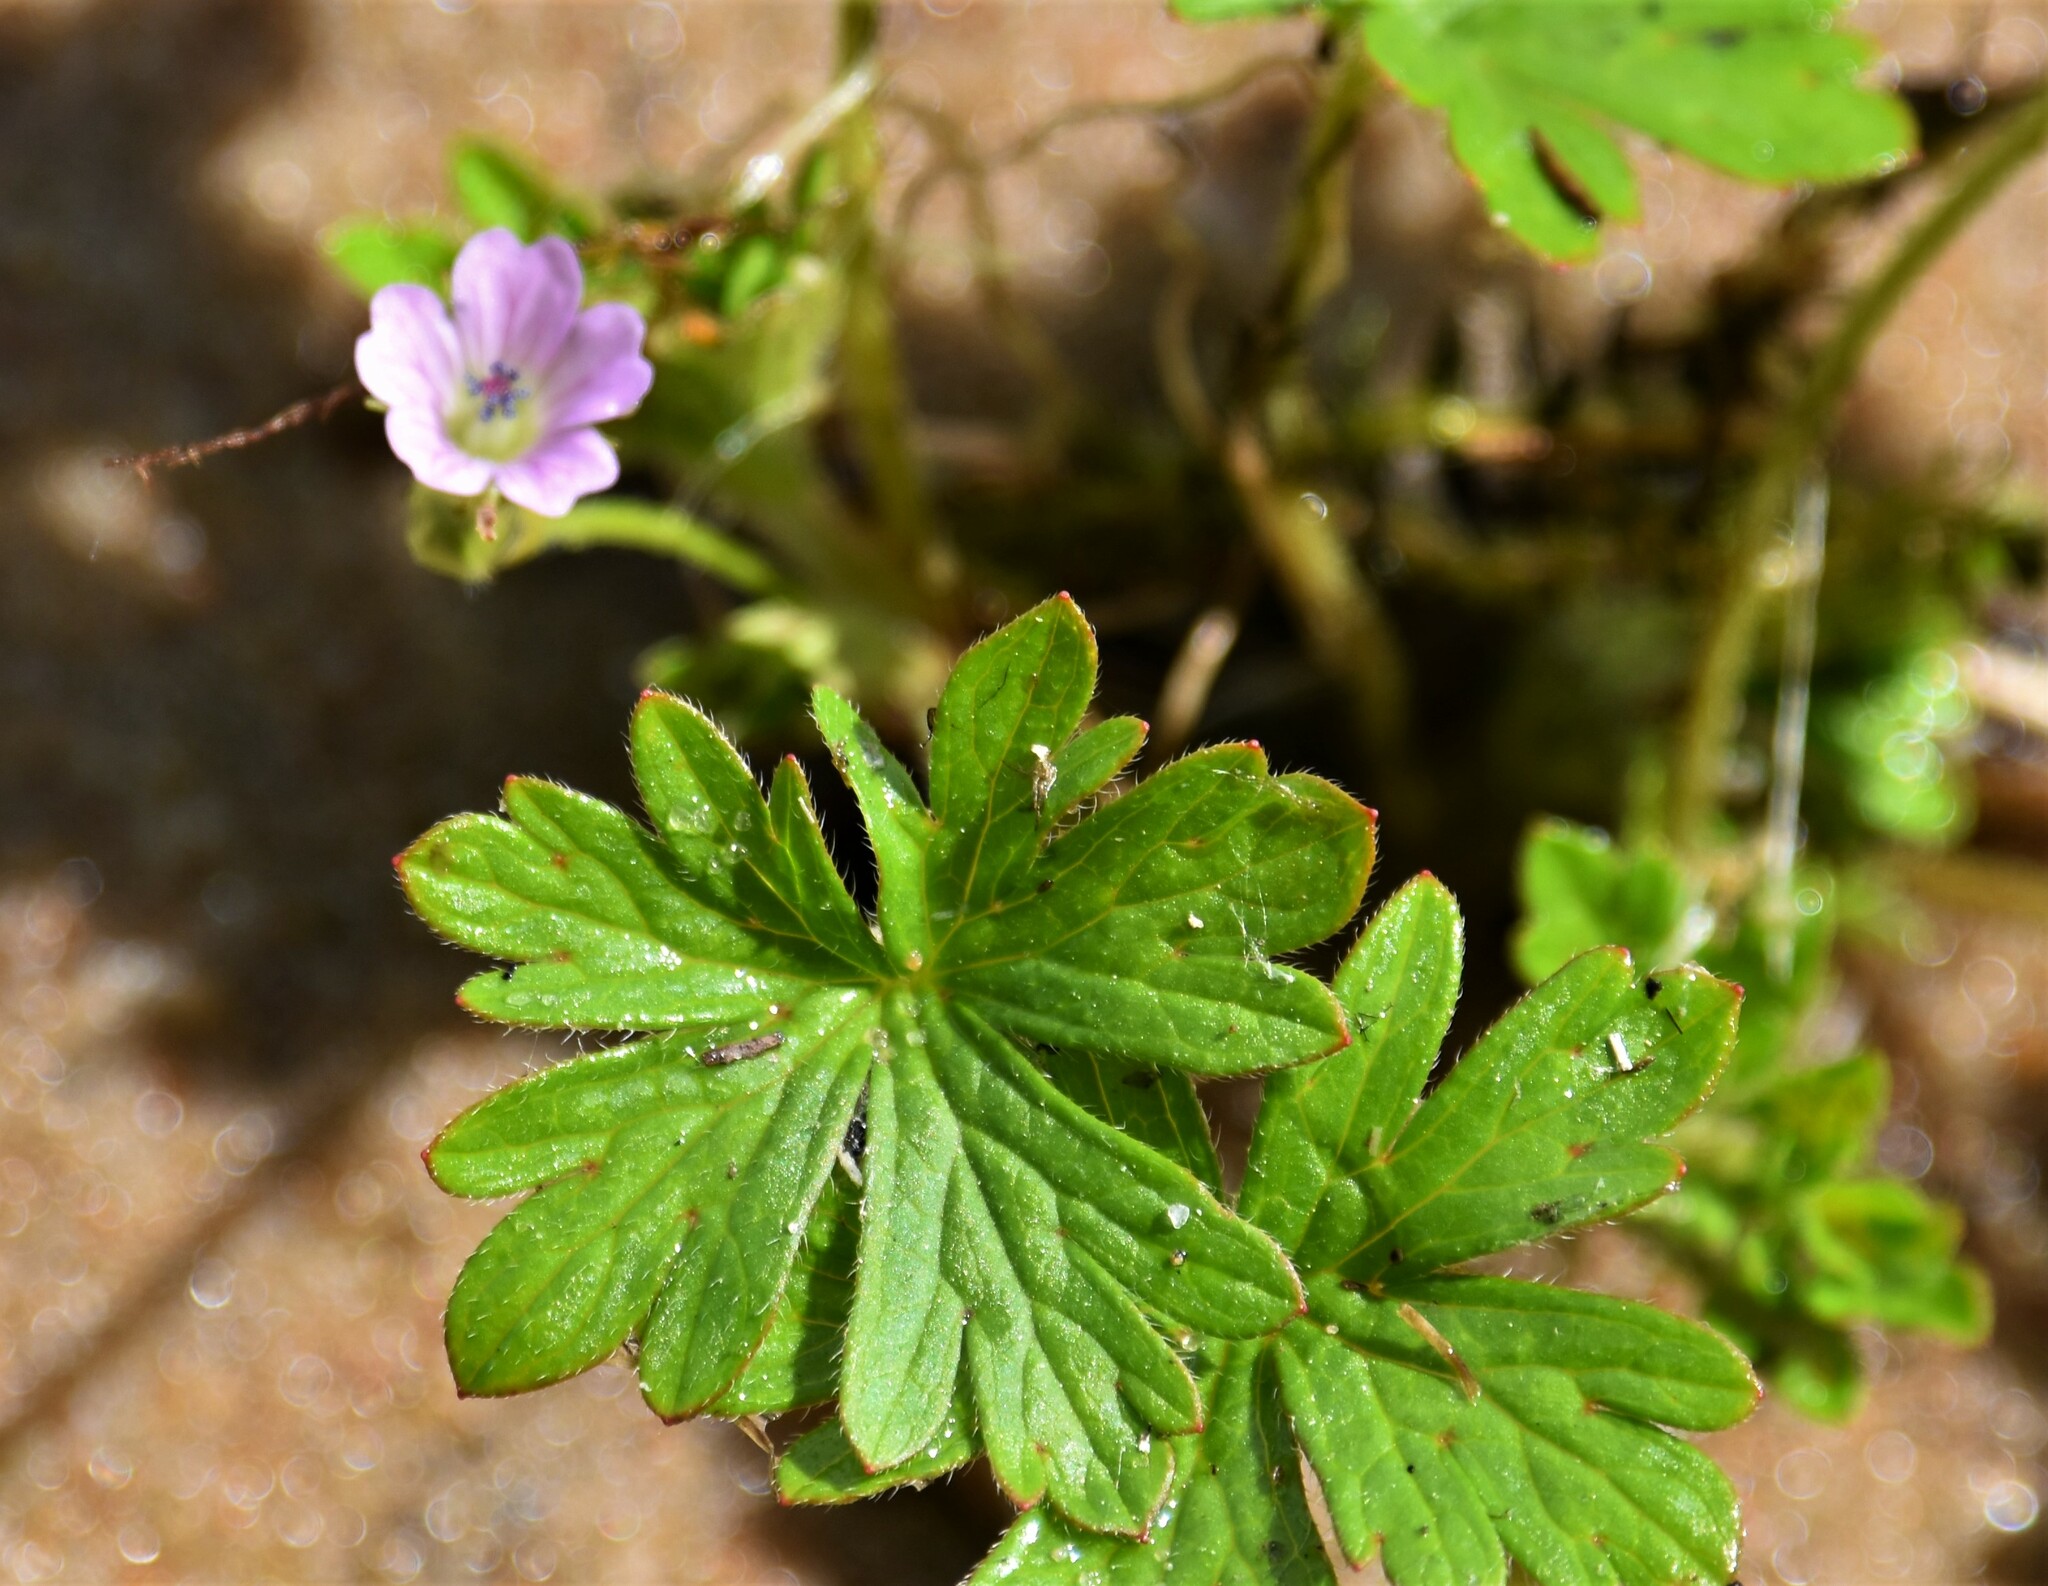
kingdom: Plantae
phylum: Tracheophyta
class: Magnoliopsida
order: Geraniales
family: Geraniaceae
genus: Geranium
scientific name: Geranium bicknellii
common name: Bicknell's cranesbill
